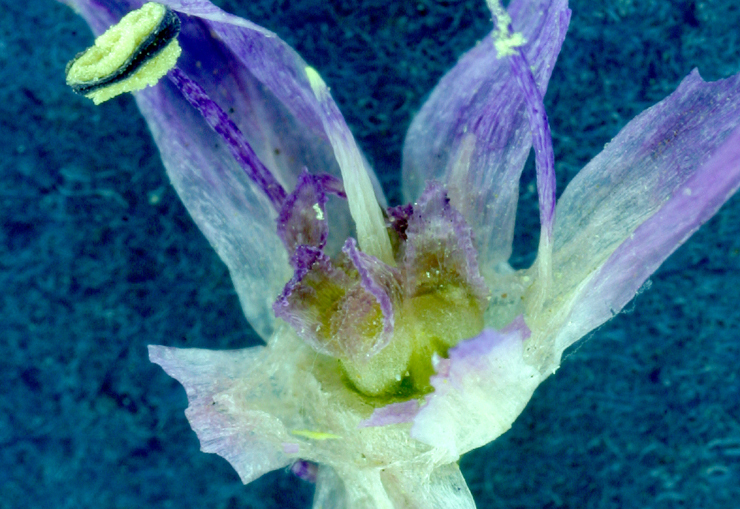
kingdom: Plantae
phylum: Tracheophyta
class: Liliopsida
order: Asparagales
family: Amaryllidaceae
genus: Allium
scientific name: Allium bisceptrum
